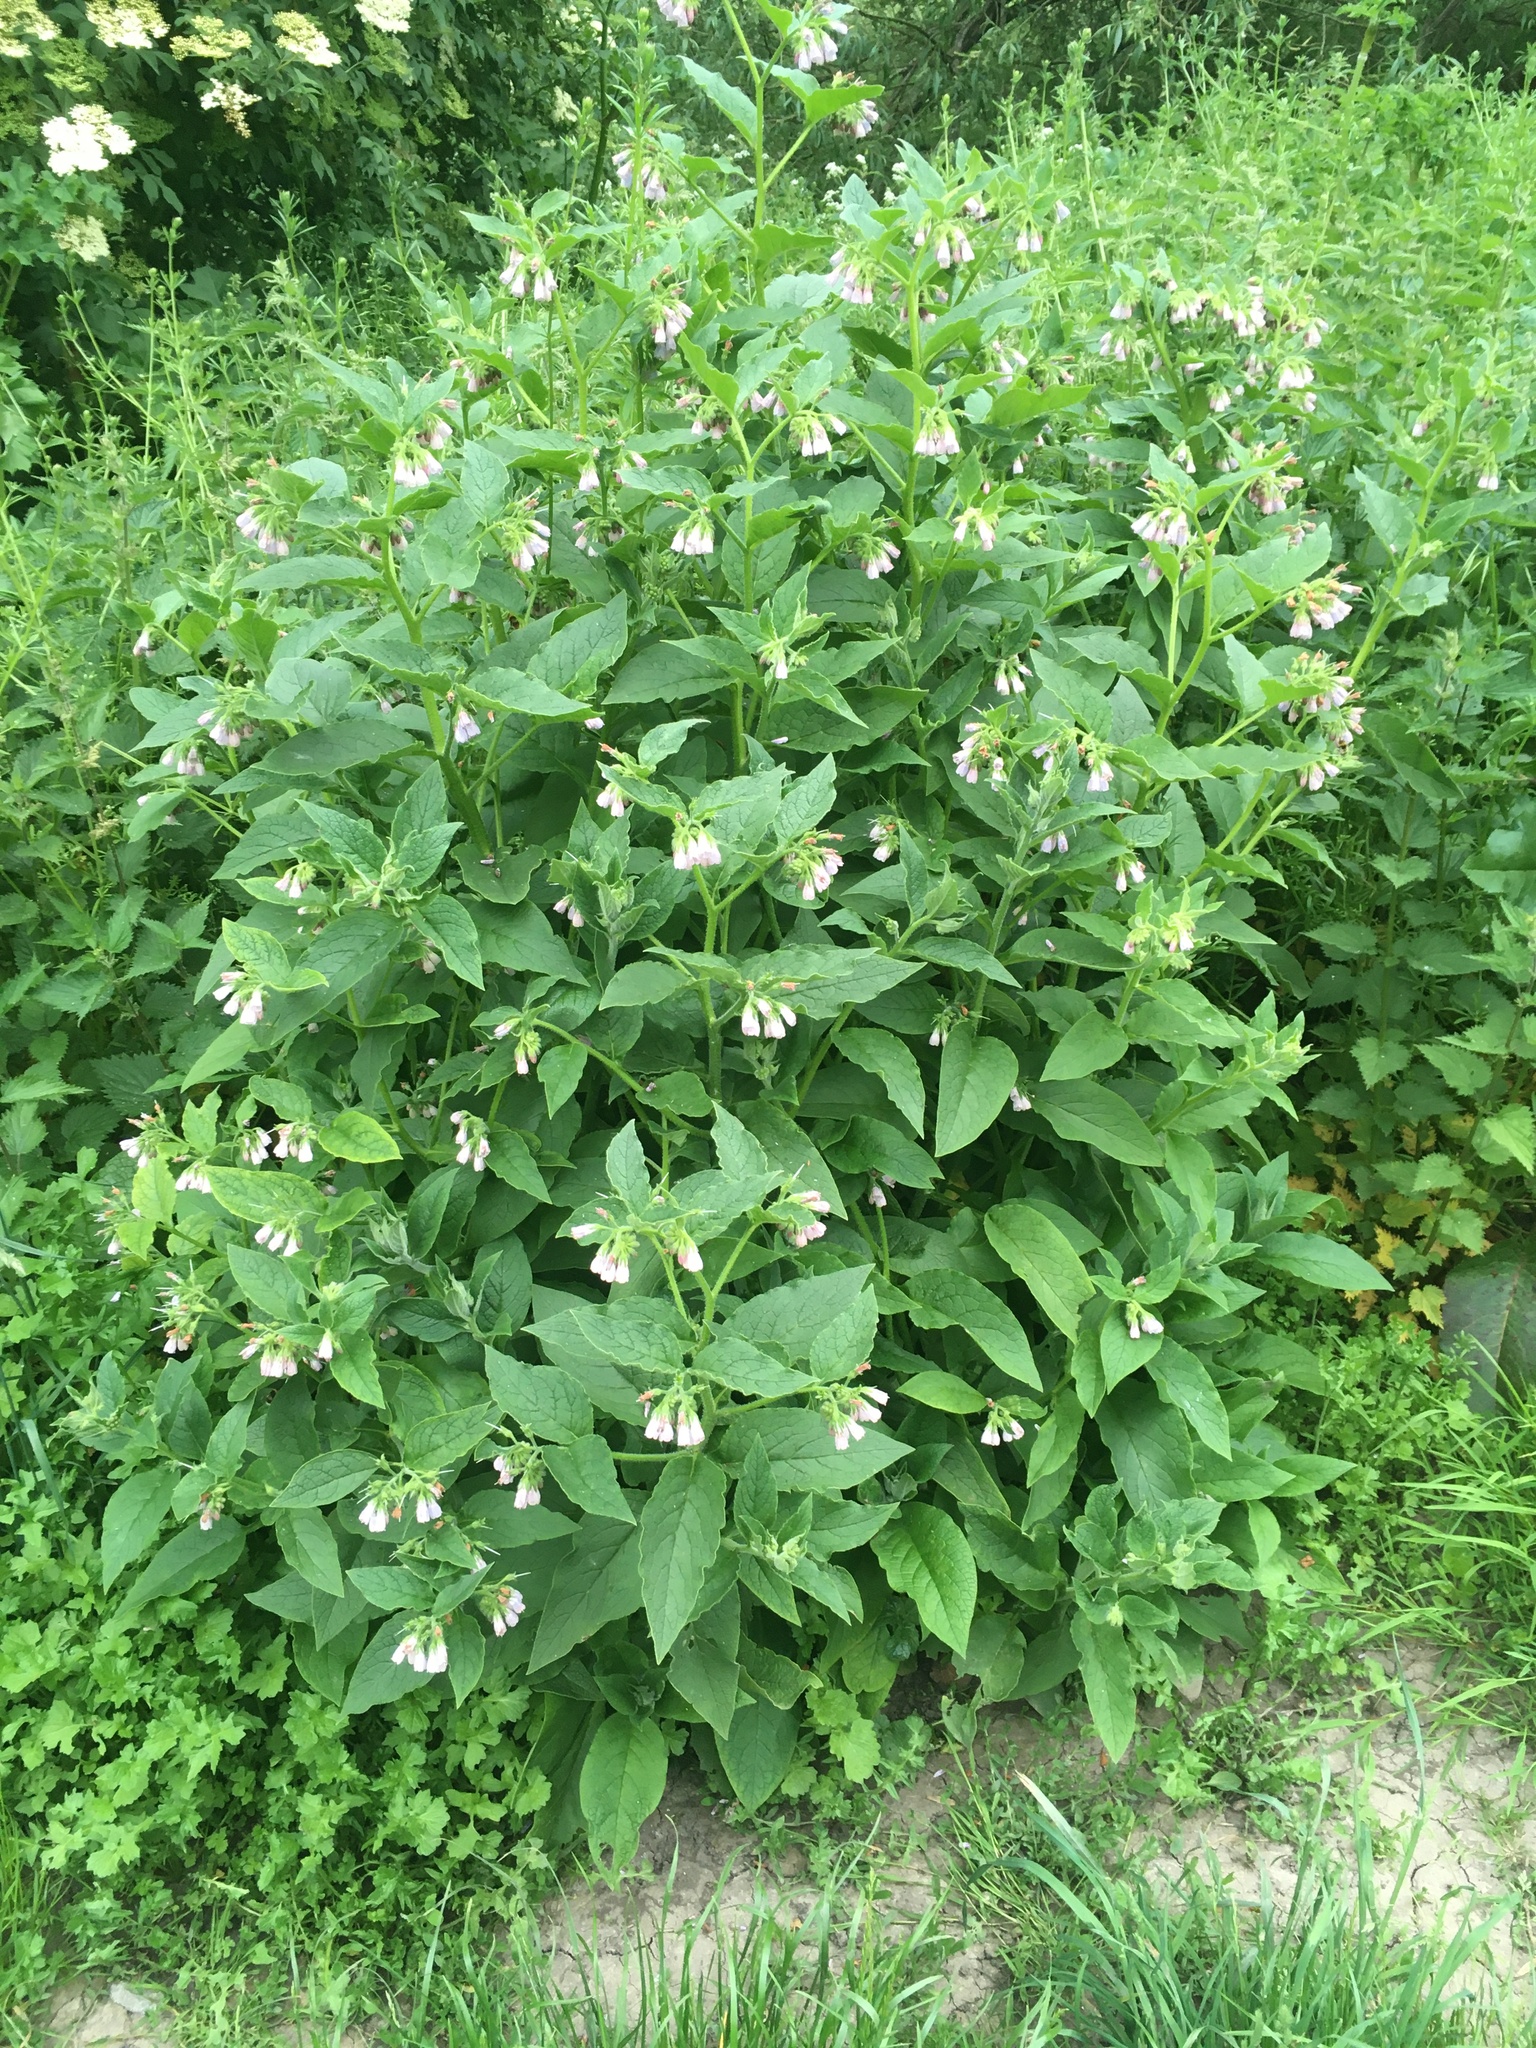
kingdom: Plantae
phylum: Tracheophyta
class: Magnoliopsida
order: Boraginales
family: Boraginaceae
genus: Symphytum
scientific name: Symphytum uplandicum
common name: Russian comfrey
